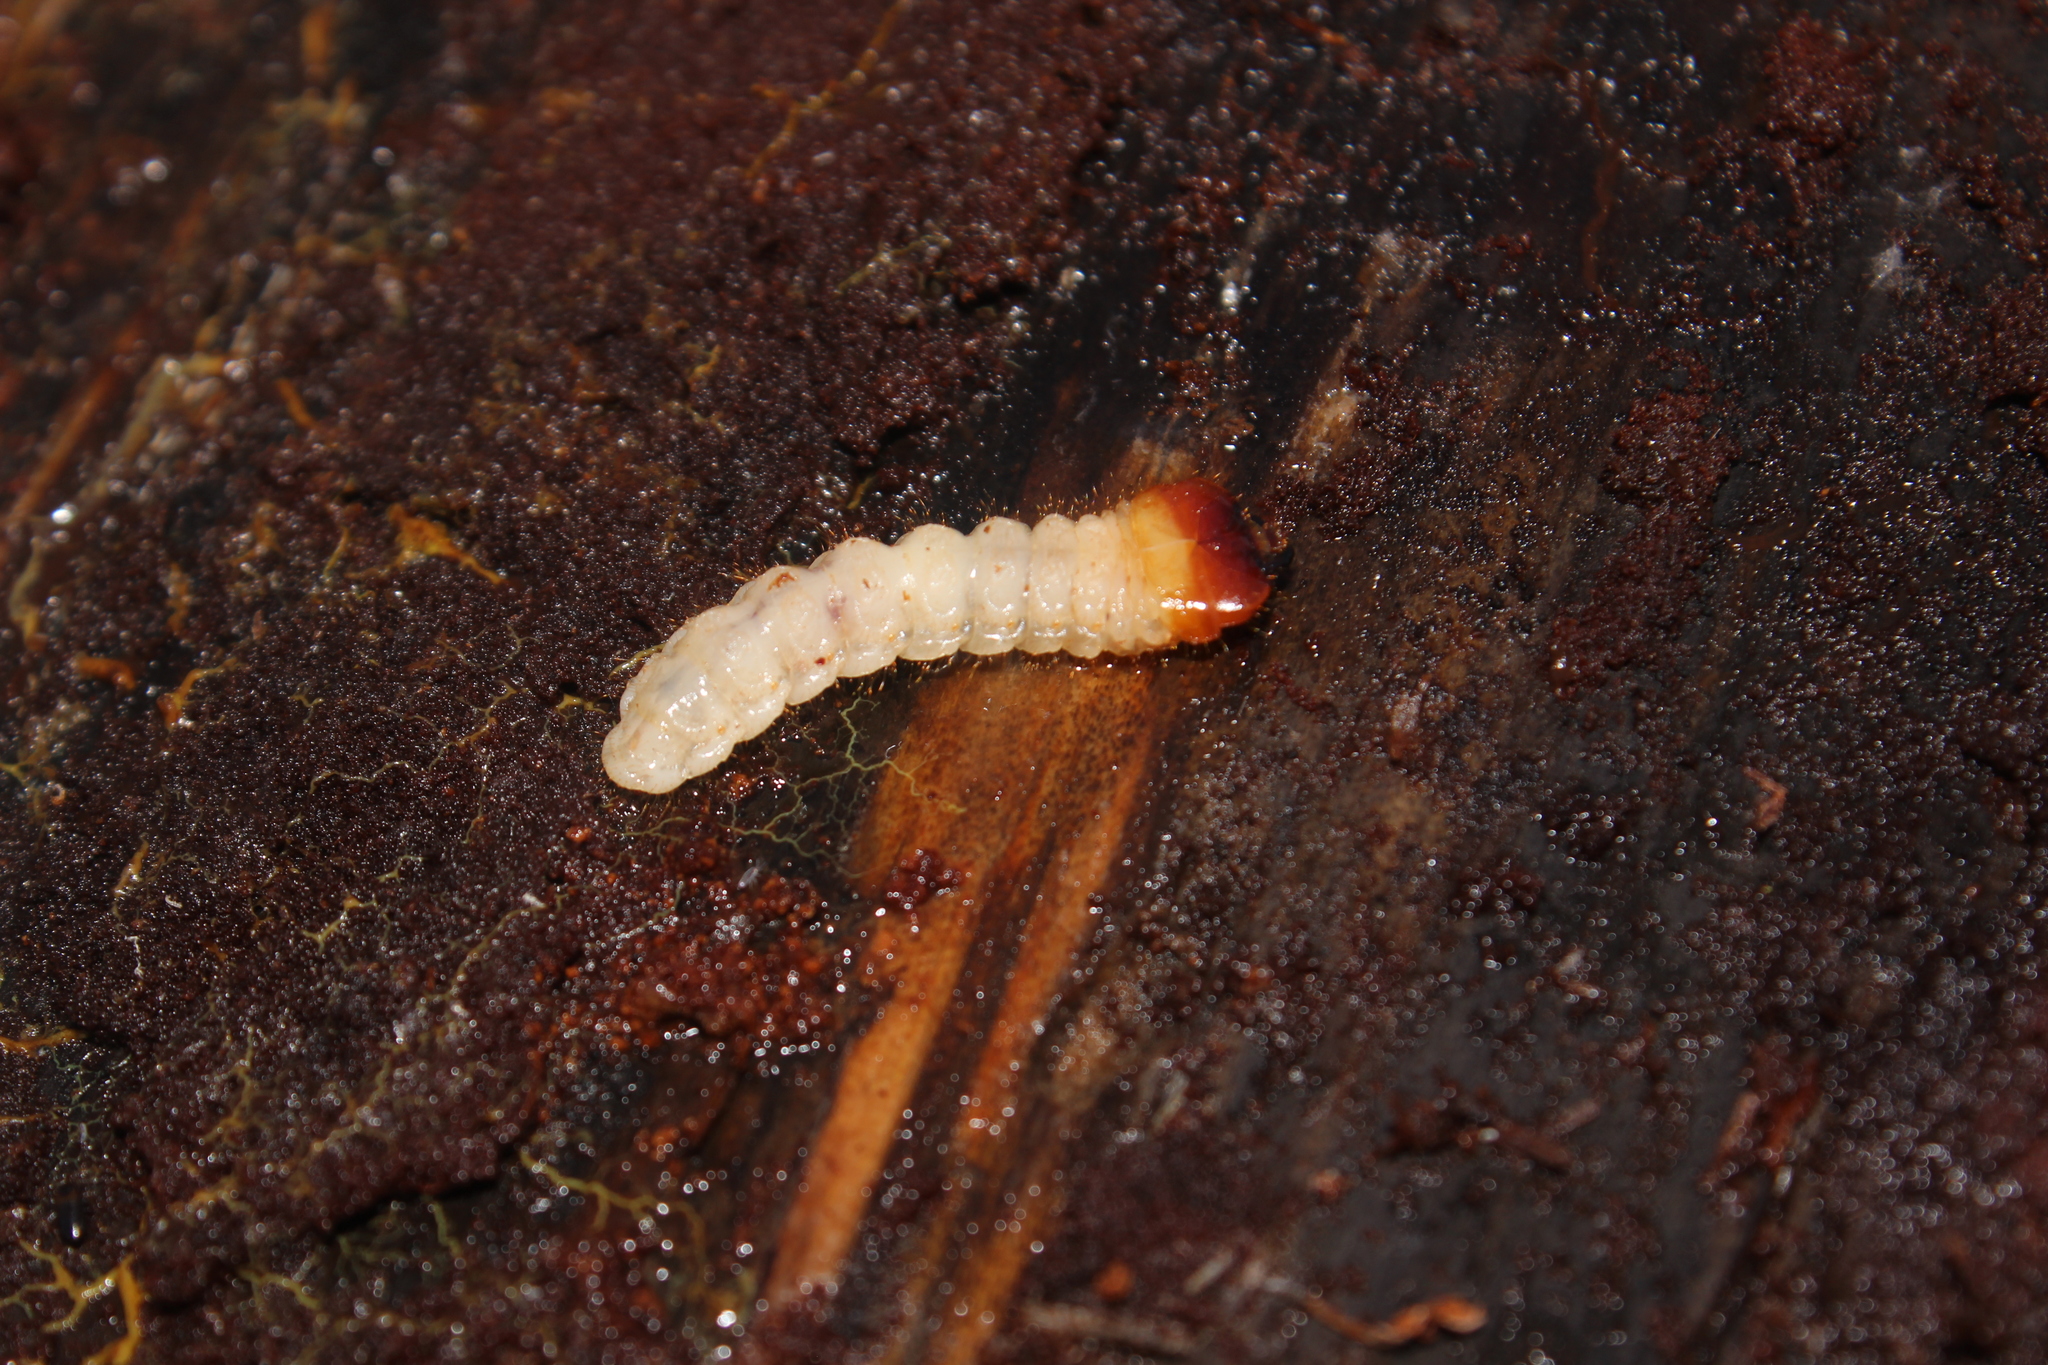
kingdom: Animalia
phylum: Arthropoda
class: Insecta
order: Coleoptera
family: Cerambycidae
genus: Rhagium
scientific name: Rhagium inquisitor
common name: Ribbed pine borer
